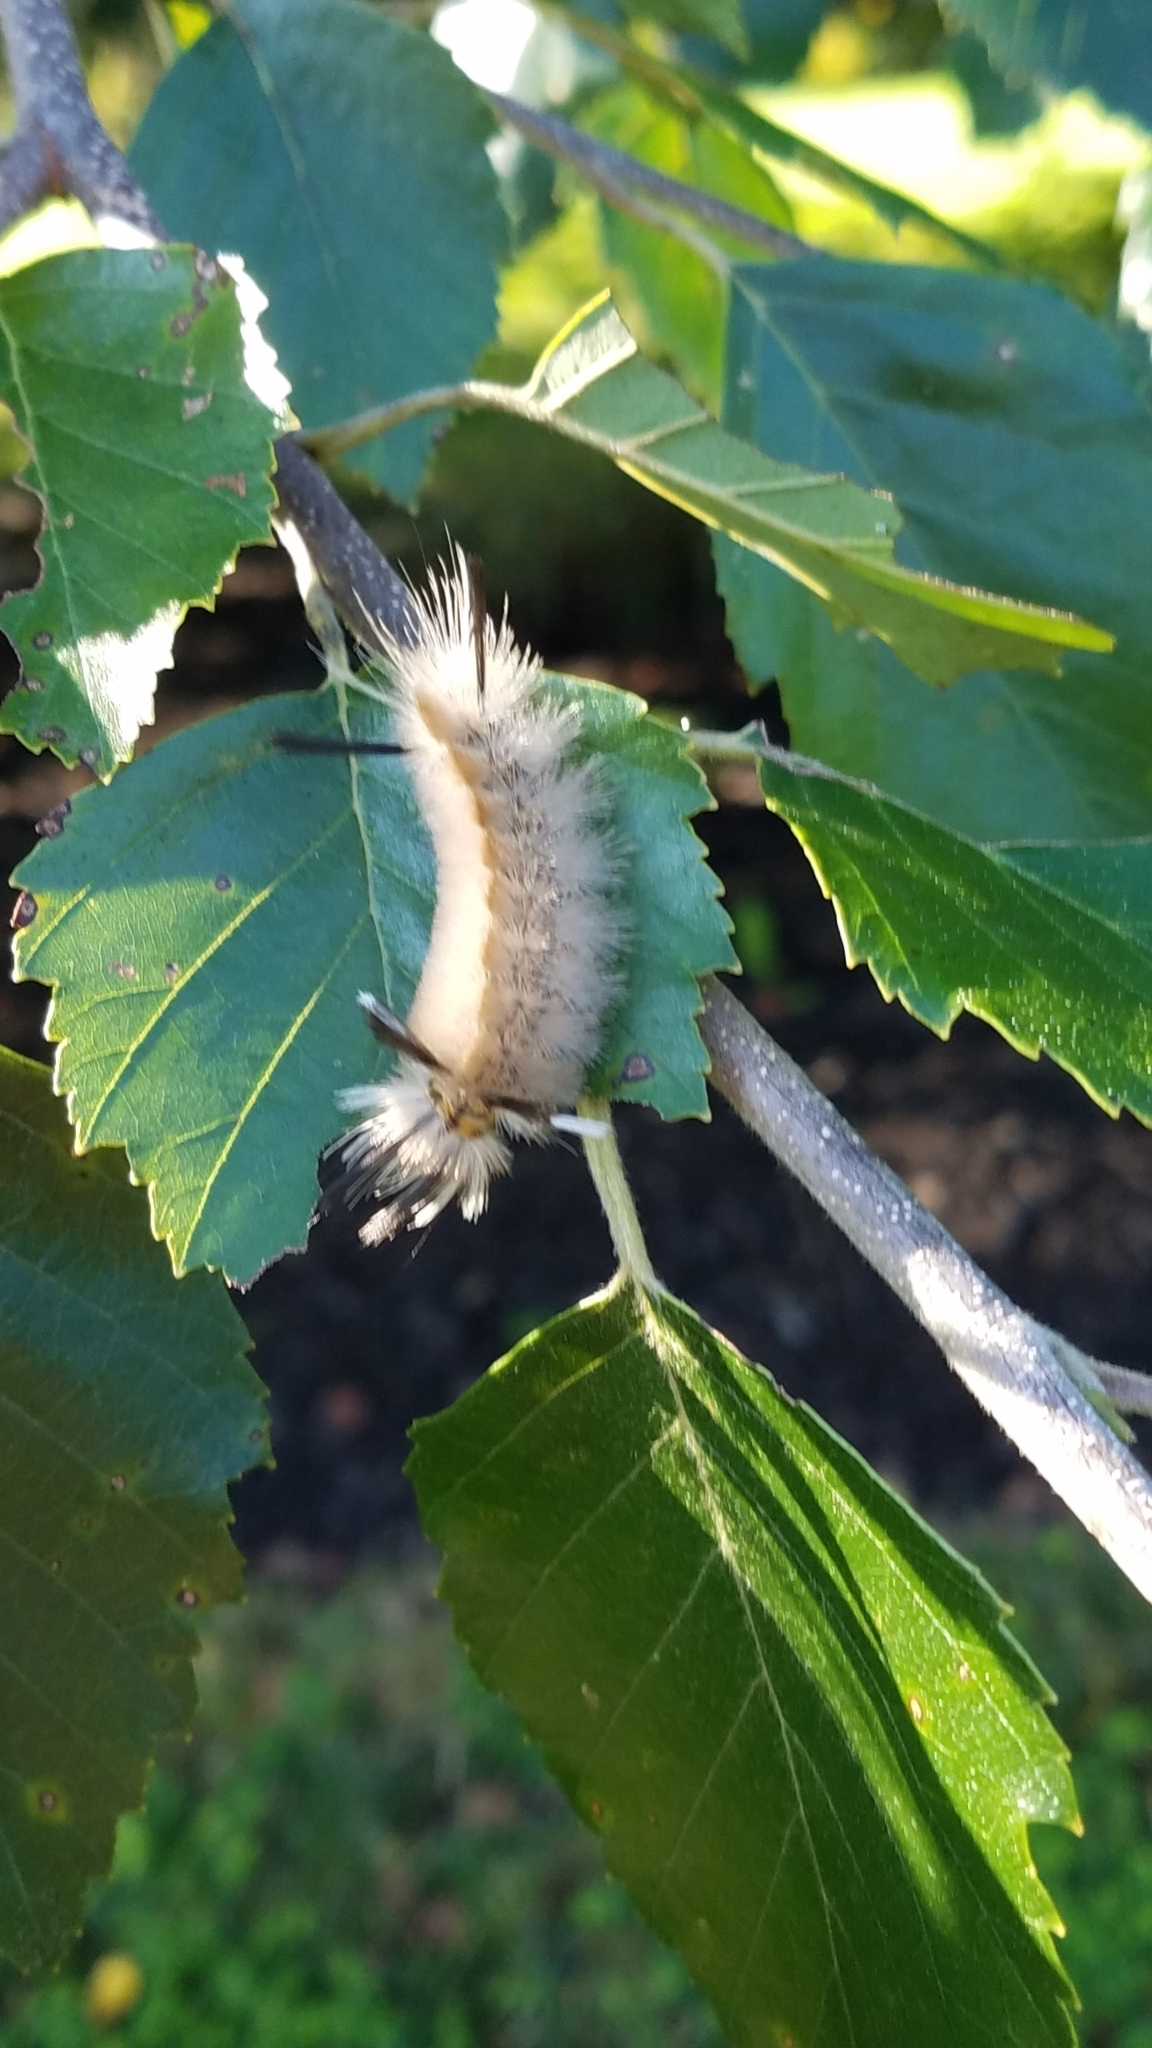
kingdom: Animalia
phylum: Arthropoda
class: Insecta
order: Lepidoptera
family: Erebidae
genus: Halysidota
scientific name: Halysidota tessellaris
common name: Banded tussock moth
